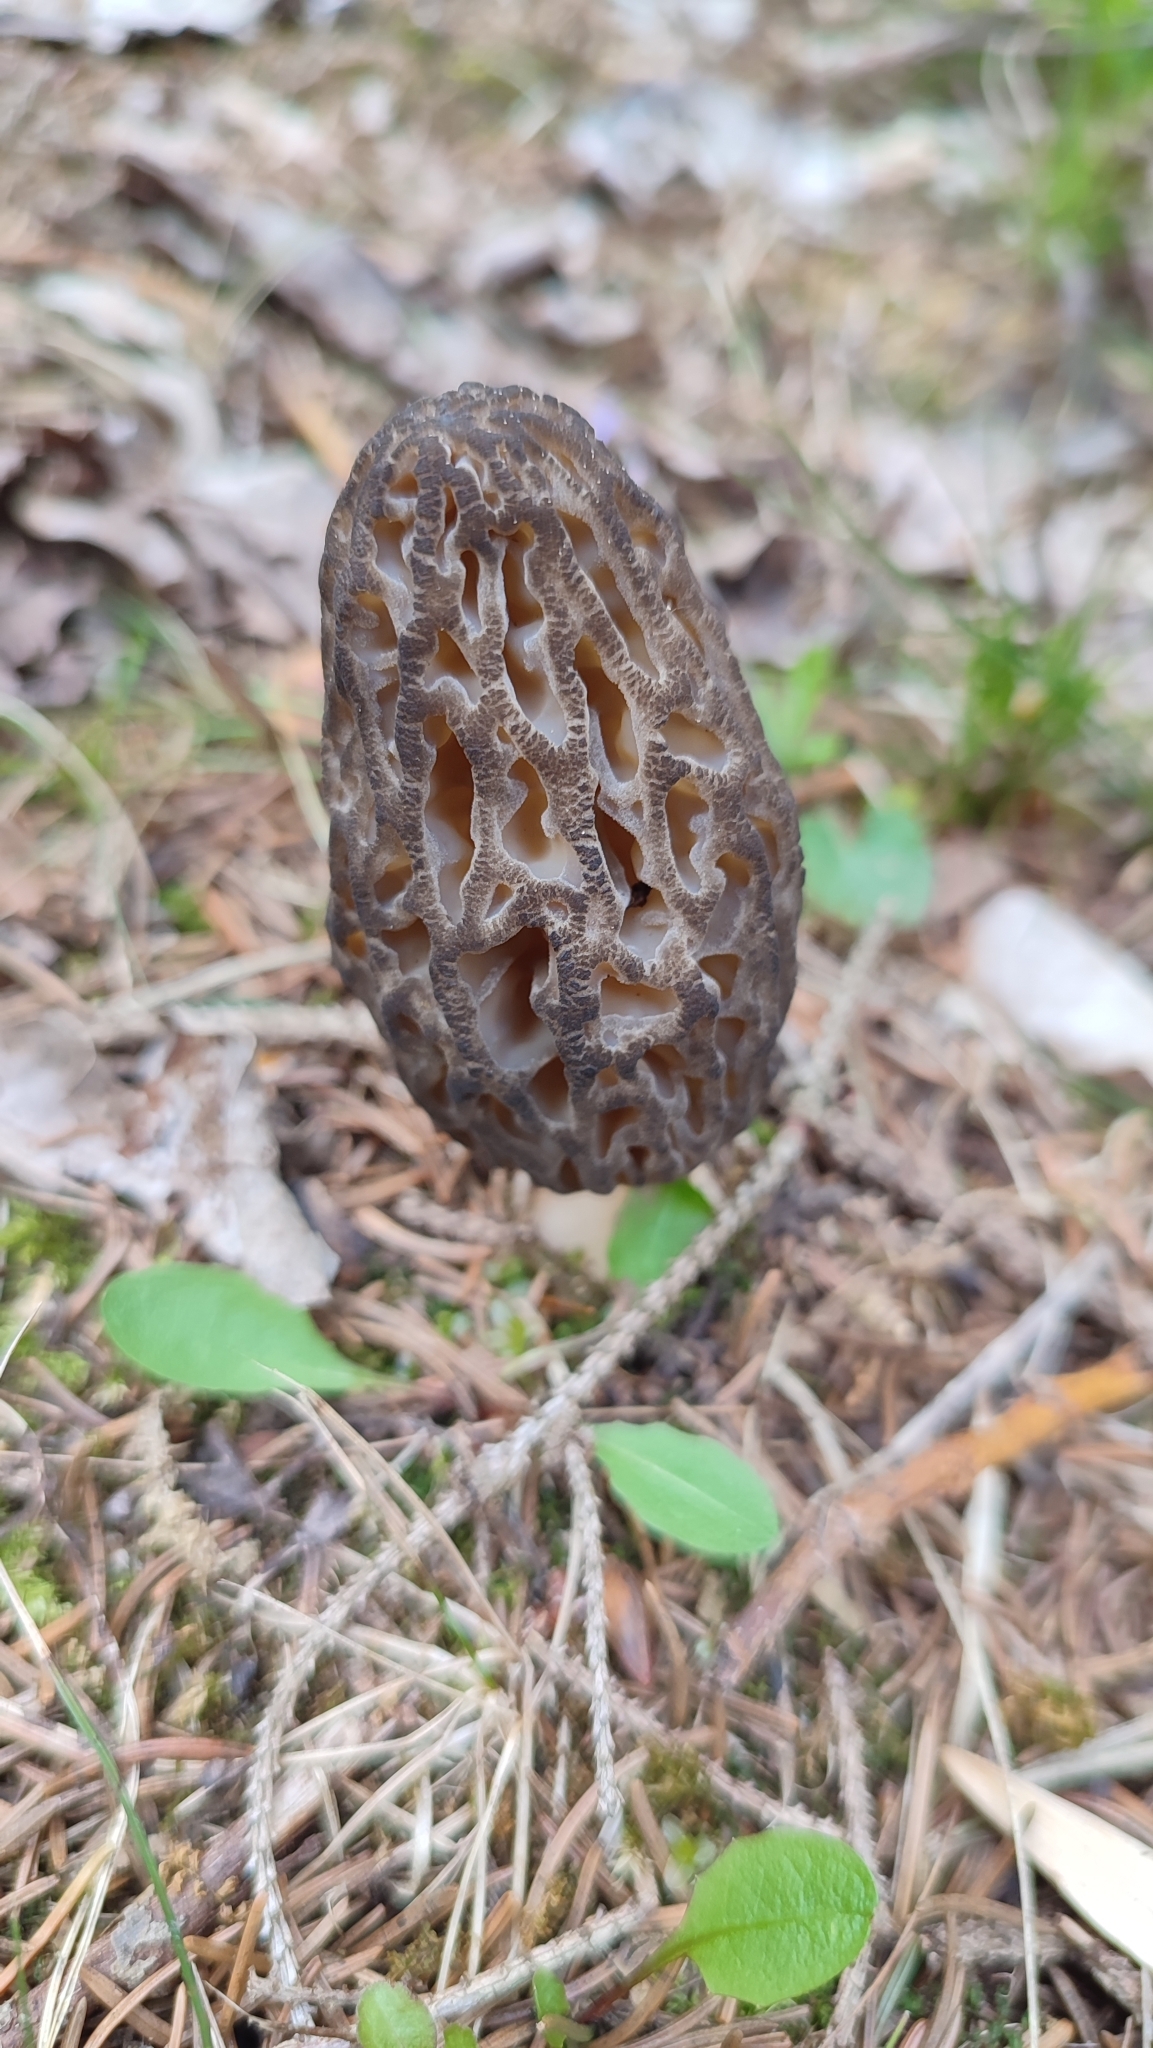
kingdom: Fungi
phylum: Ascomycota
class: Pezizomycetes
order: Pezizales
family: Morchellaceae
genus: Morchella
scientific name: Morchella
